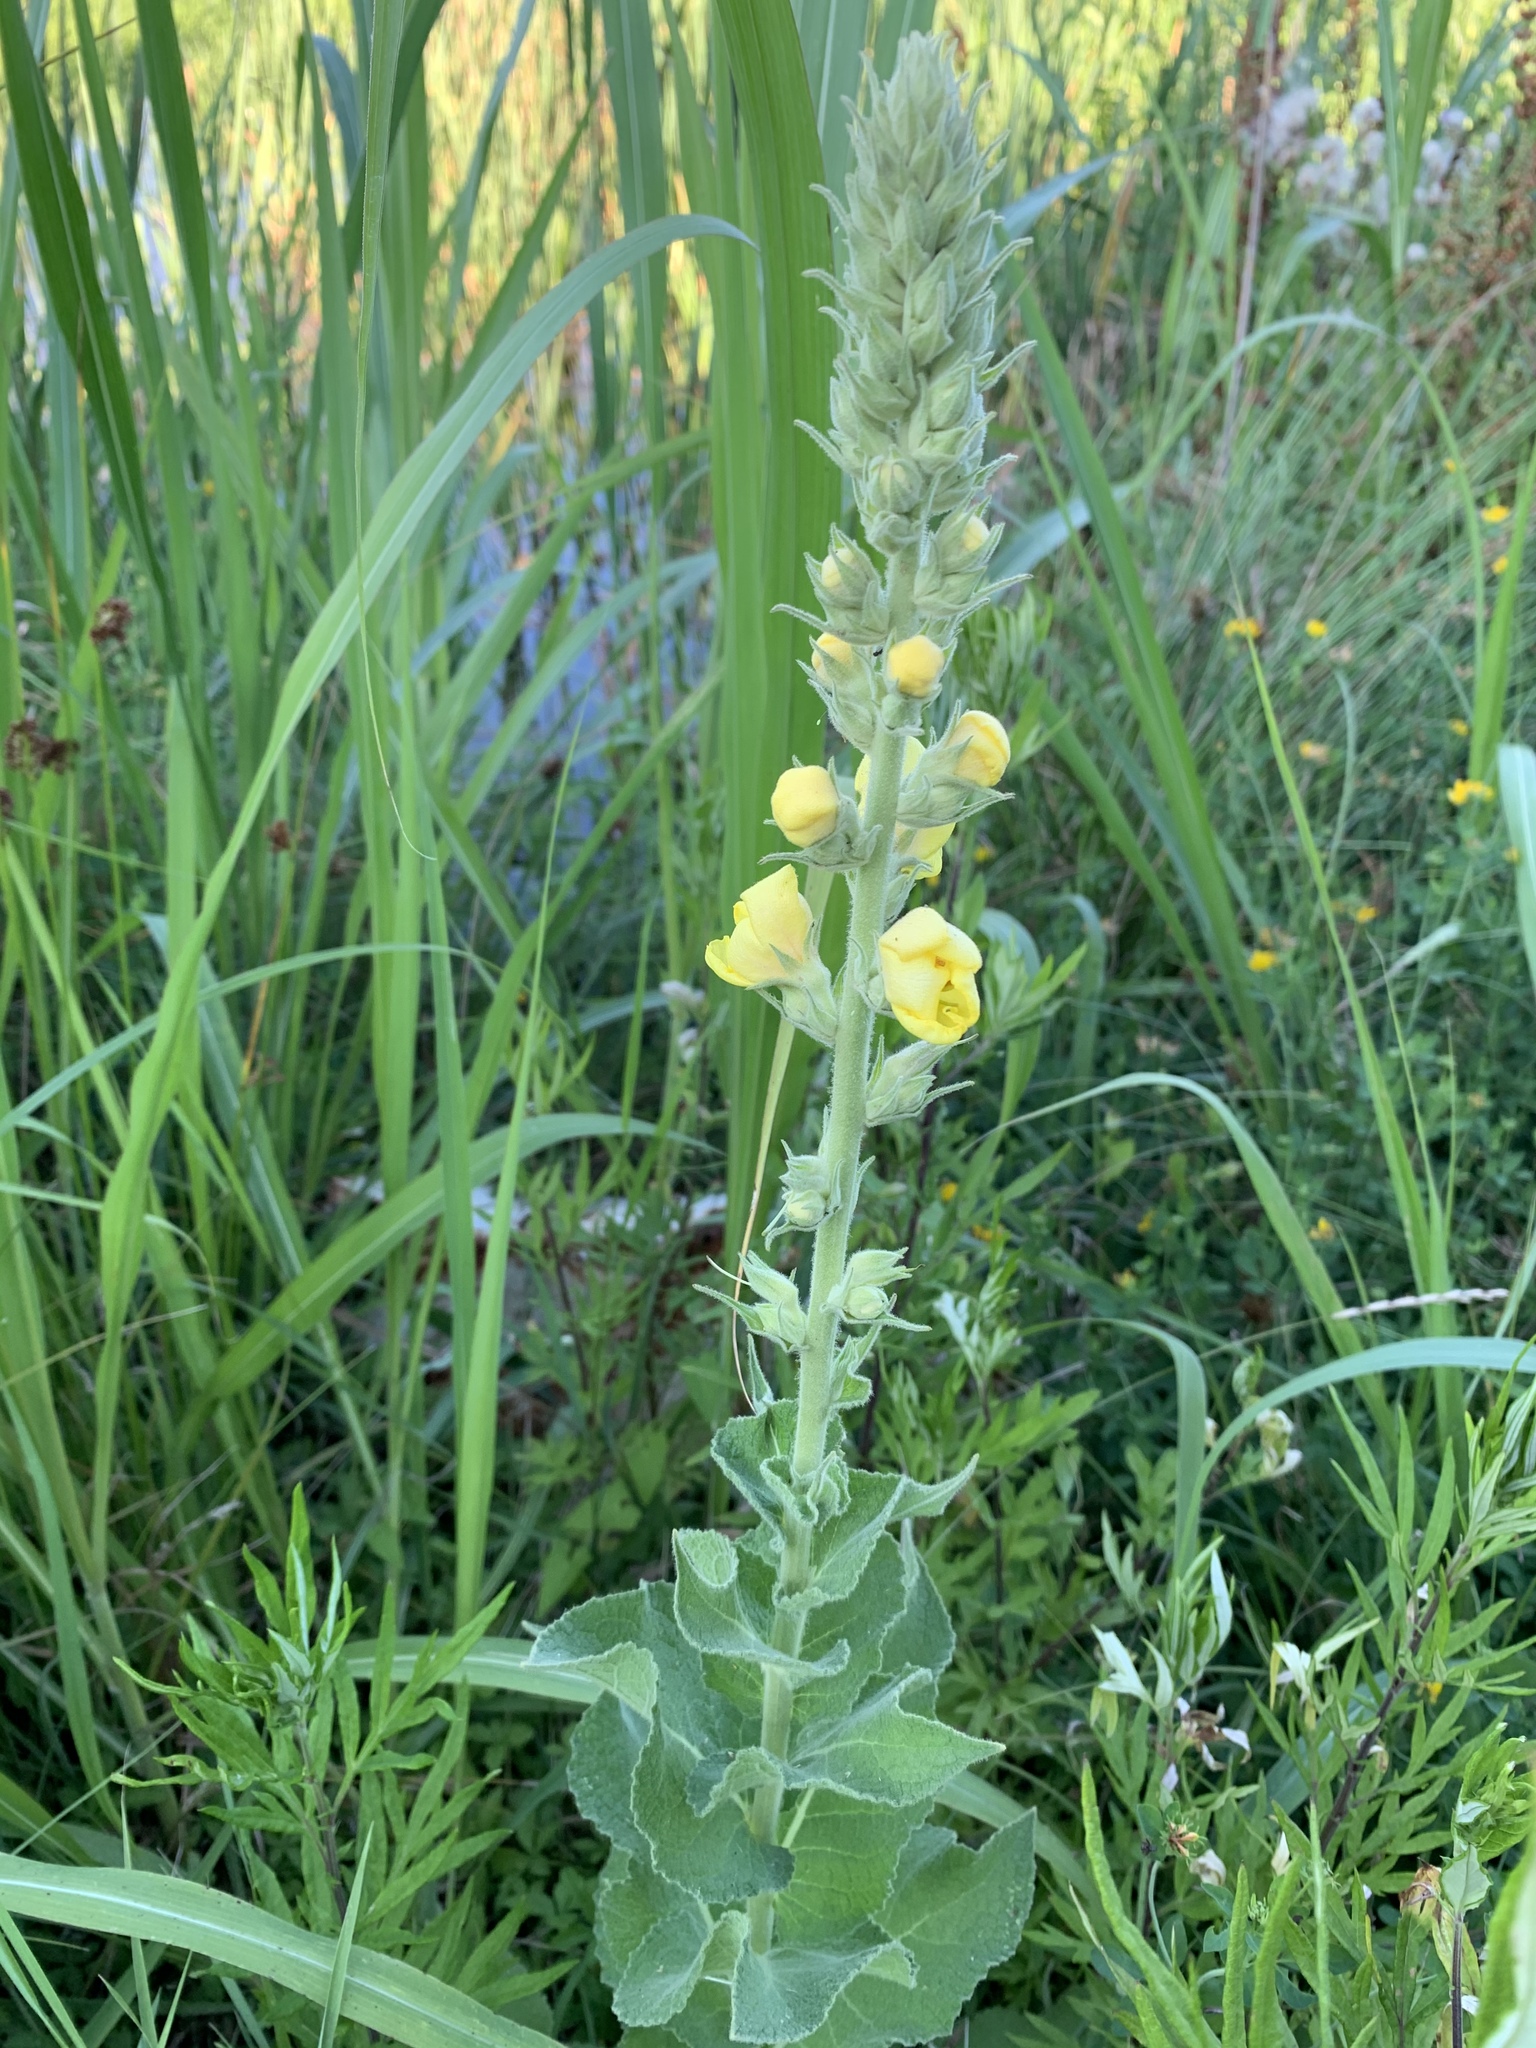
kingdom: Plantae
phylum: Tracheophyta
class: Magnoliopsida
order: Lamiales
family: Scrophulariaceae
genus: Verbascum
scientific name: Verbascum phlomoides
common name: Orange mullein
